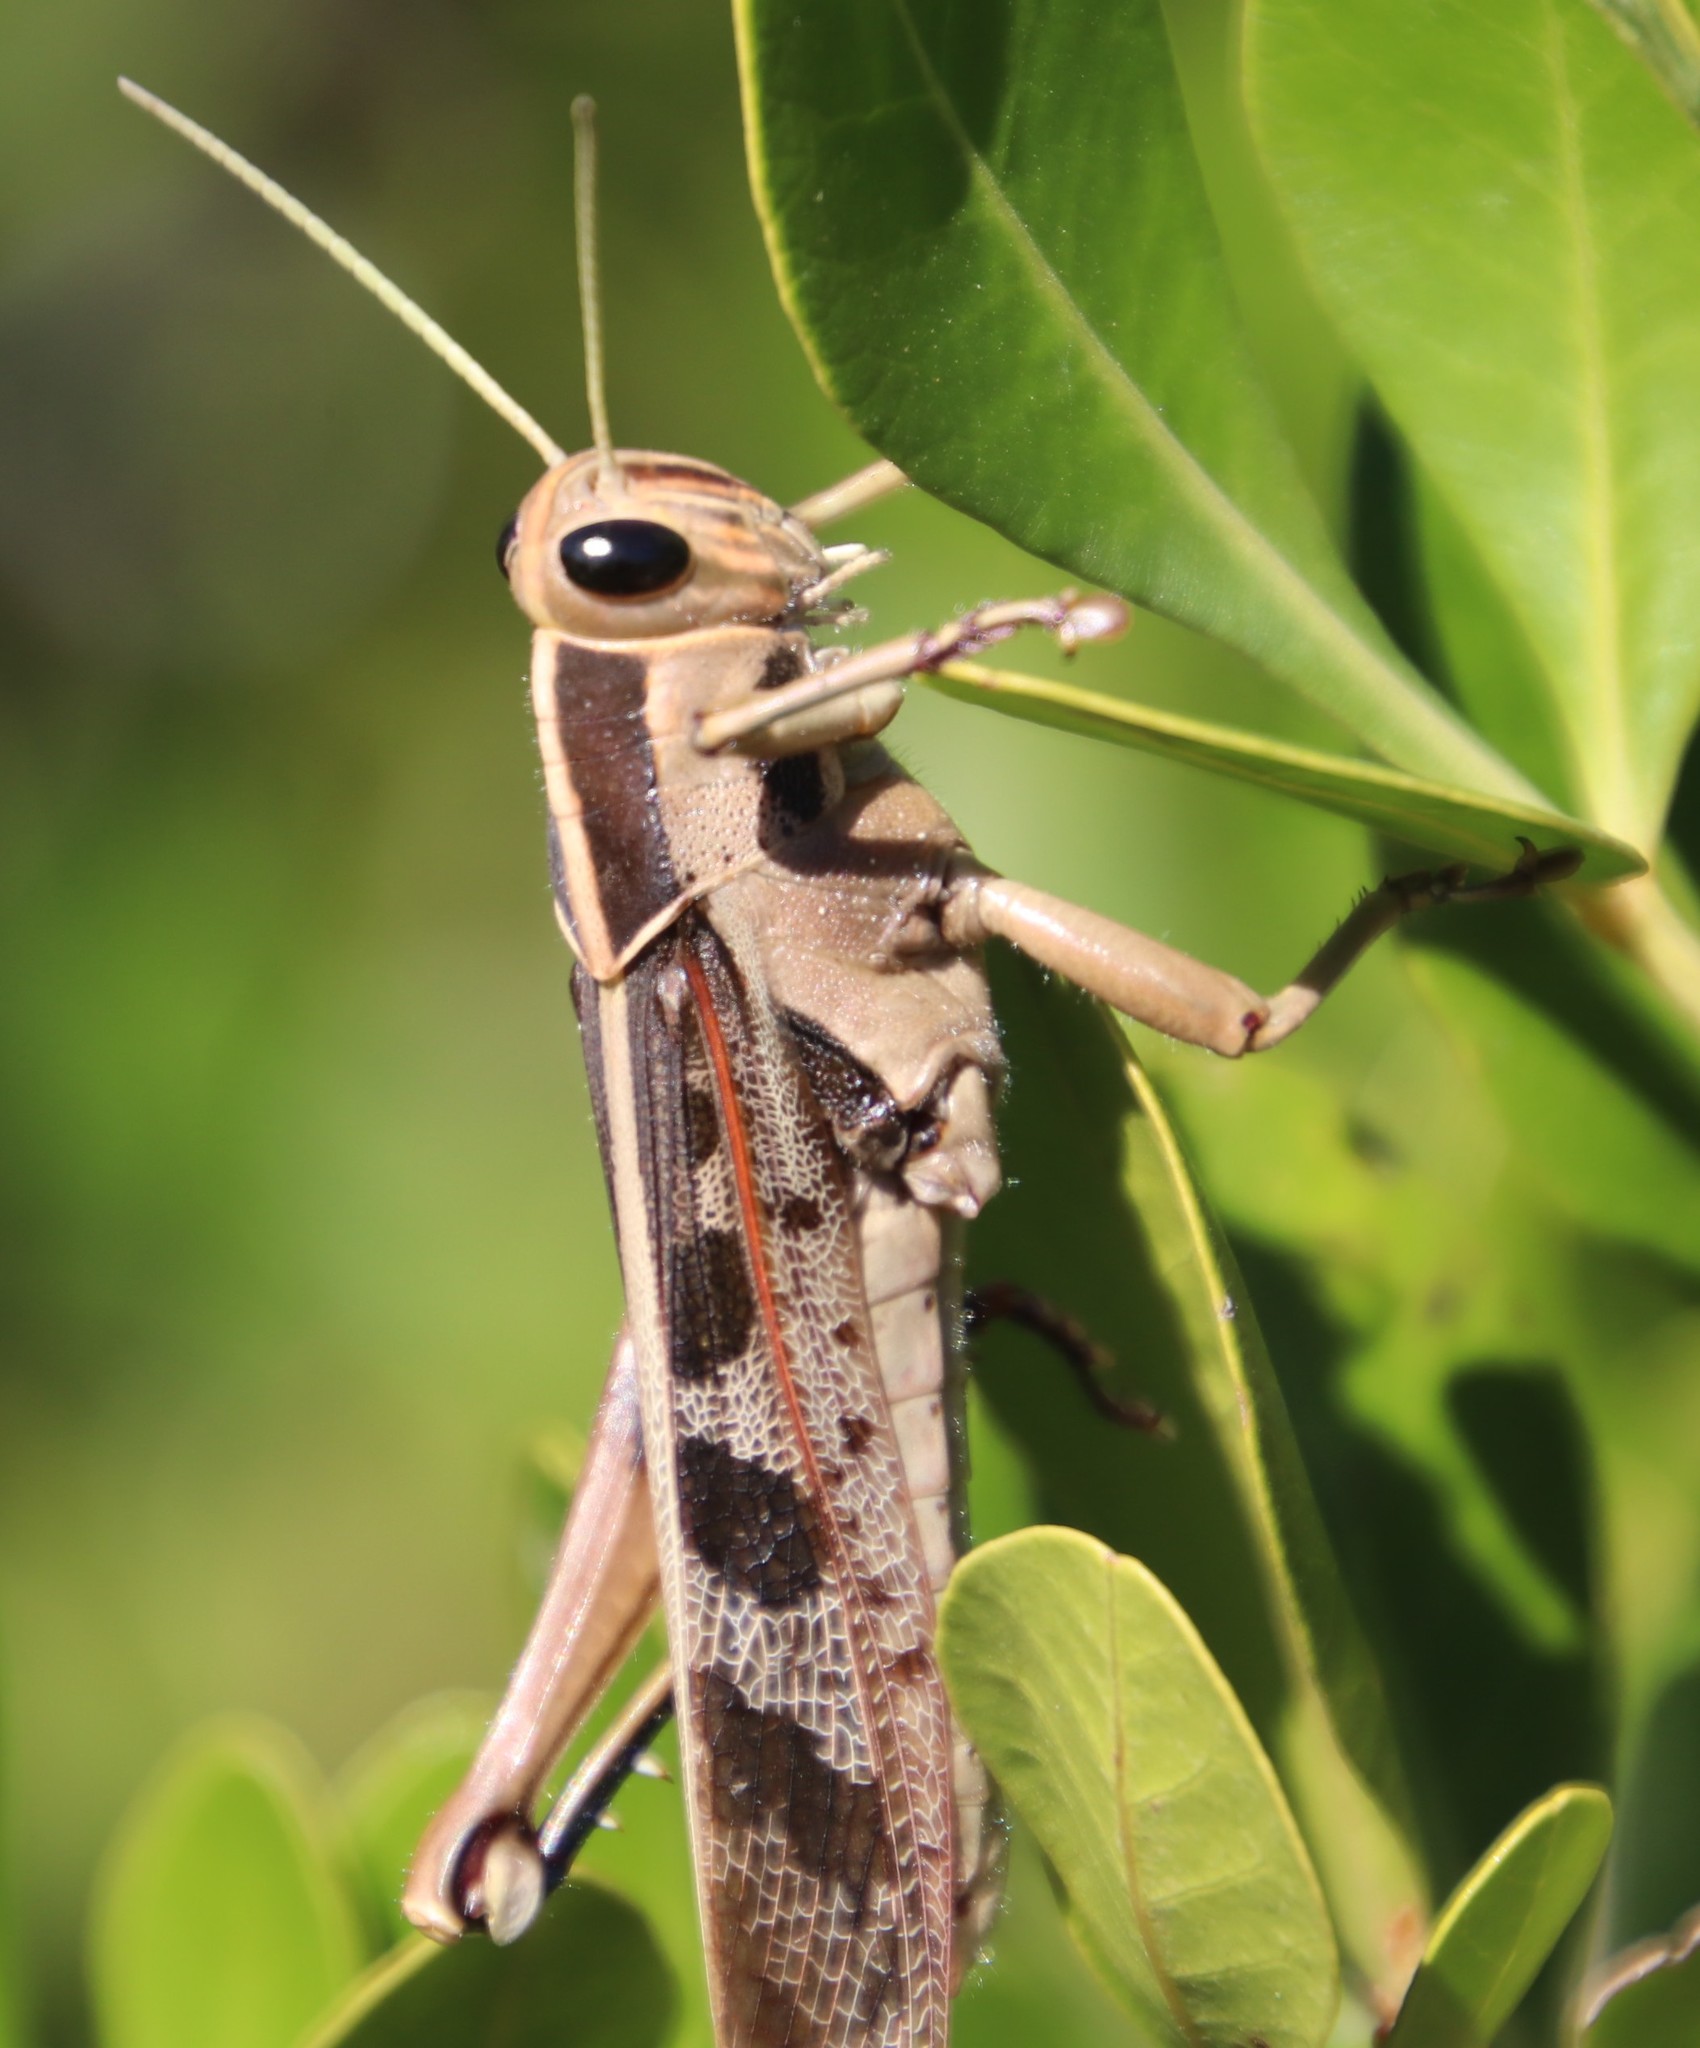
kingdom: Animalia
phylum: Arthropoda
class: Insecta
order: Orthoptera
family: Acrididae
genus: Acanthacris
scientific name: Acanthacris ruficornis
